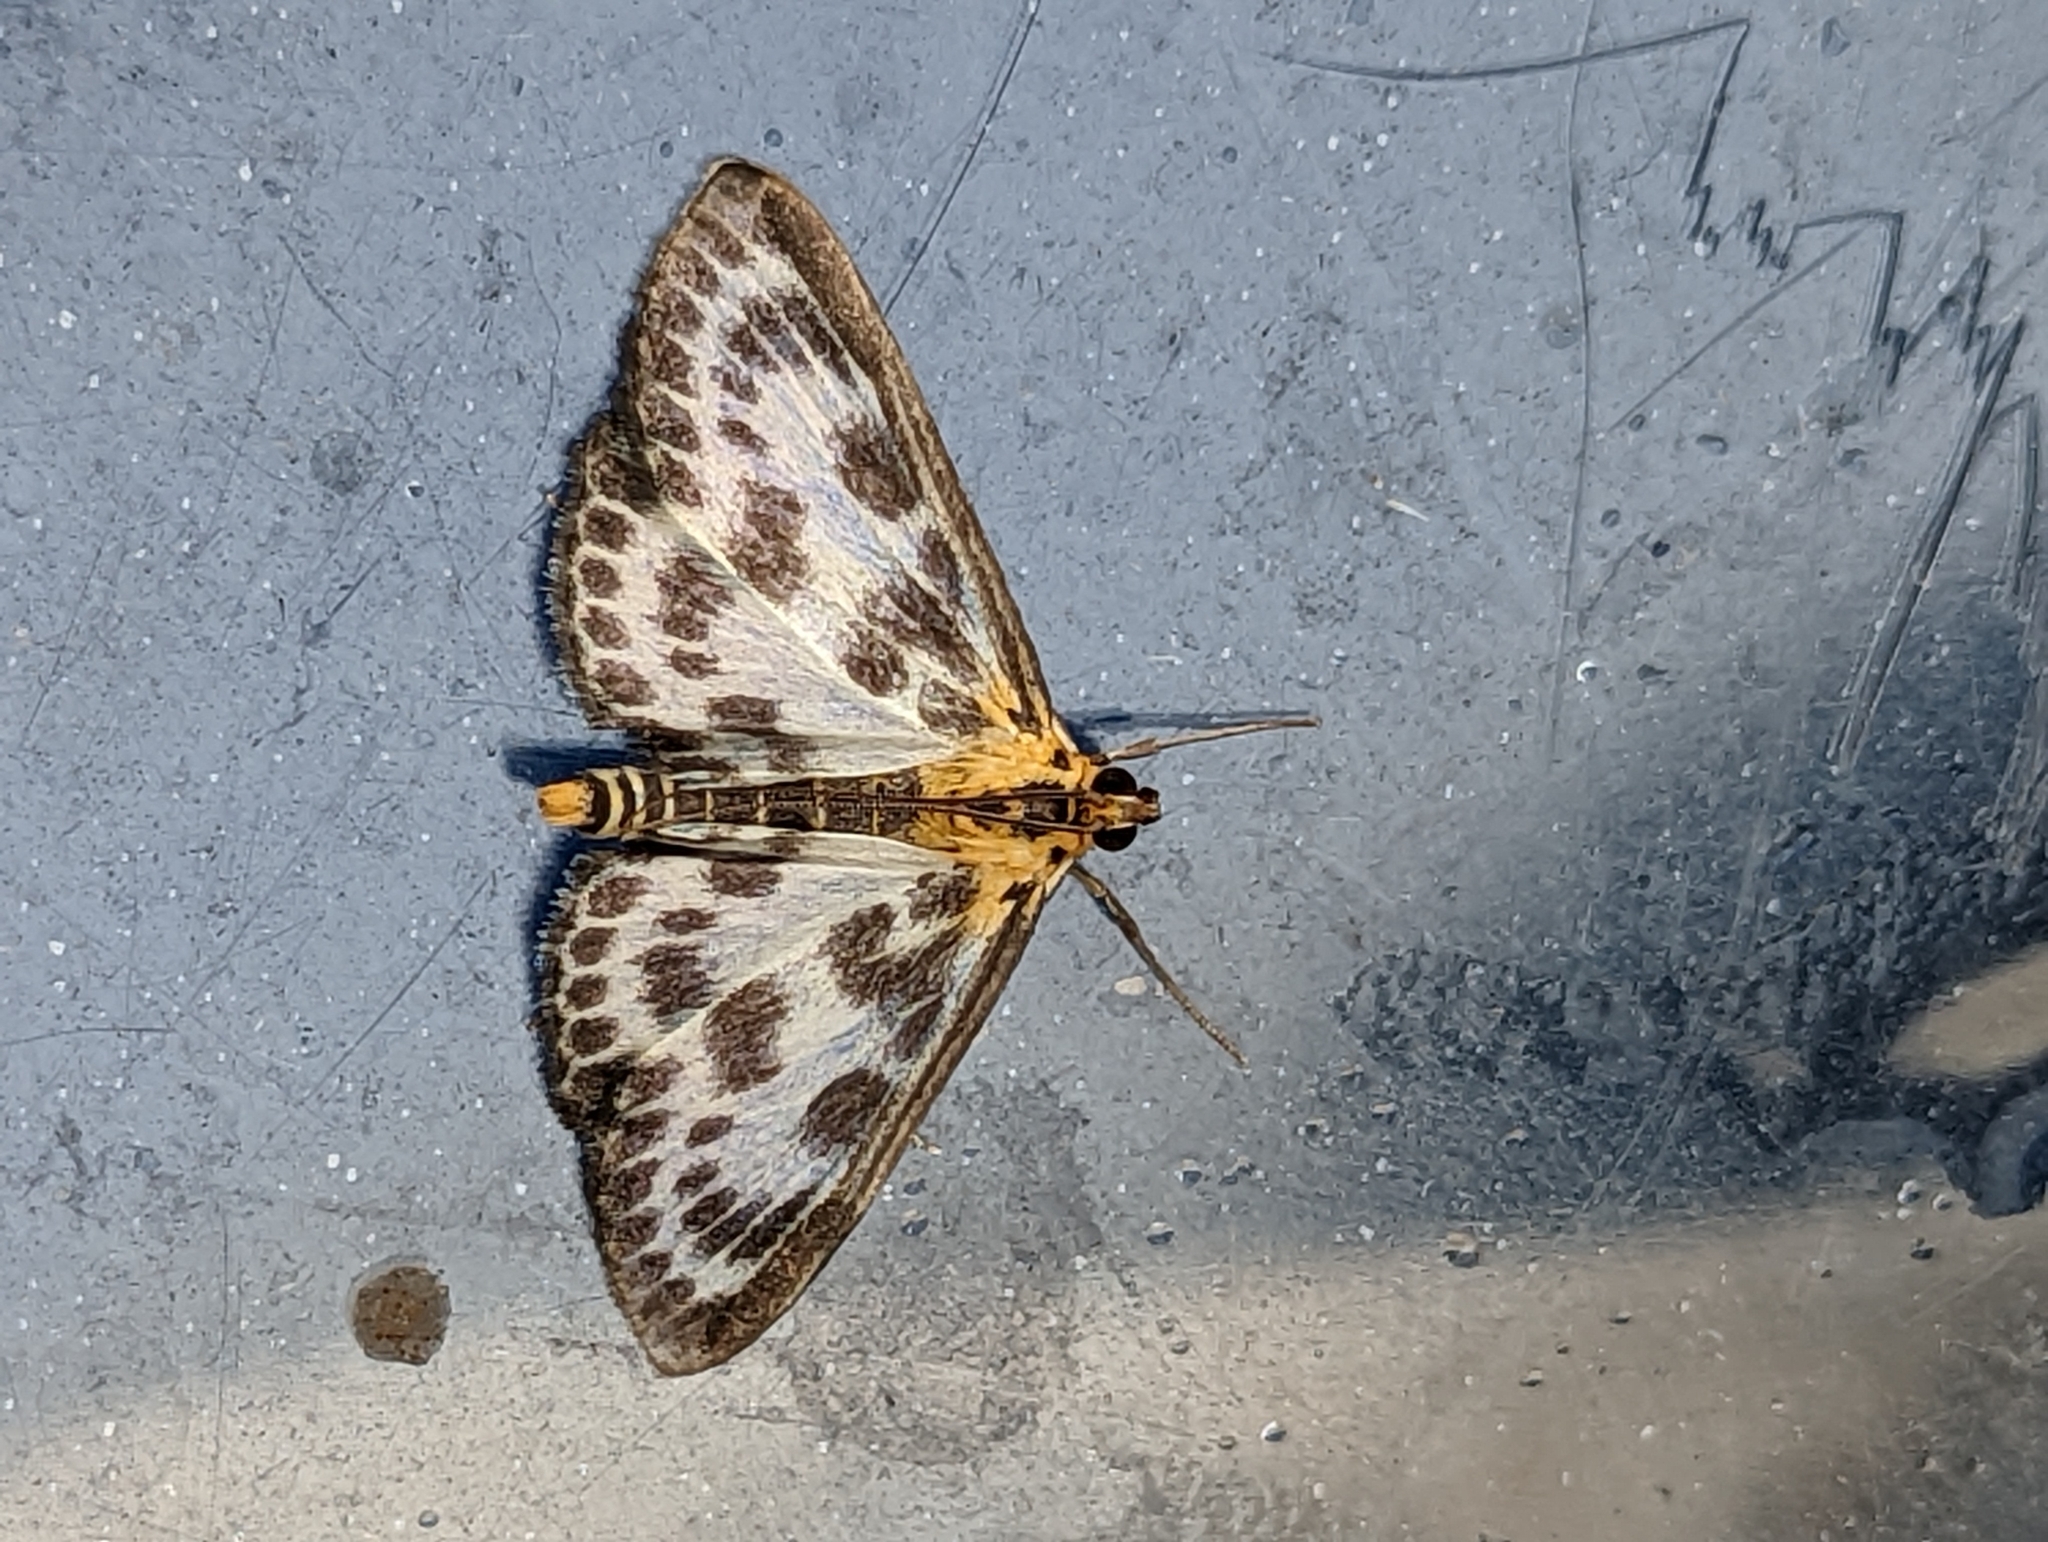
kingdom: Animalia
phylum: Arthropoda
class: Insecta
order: Lepidoptera
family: Crambidae
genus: Anania
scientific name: Anania hortulata
